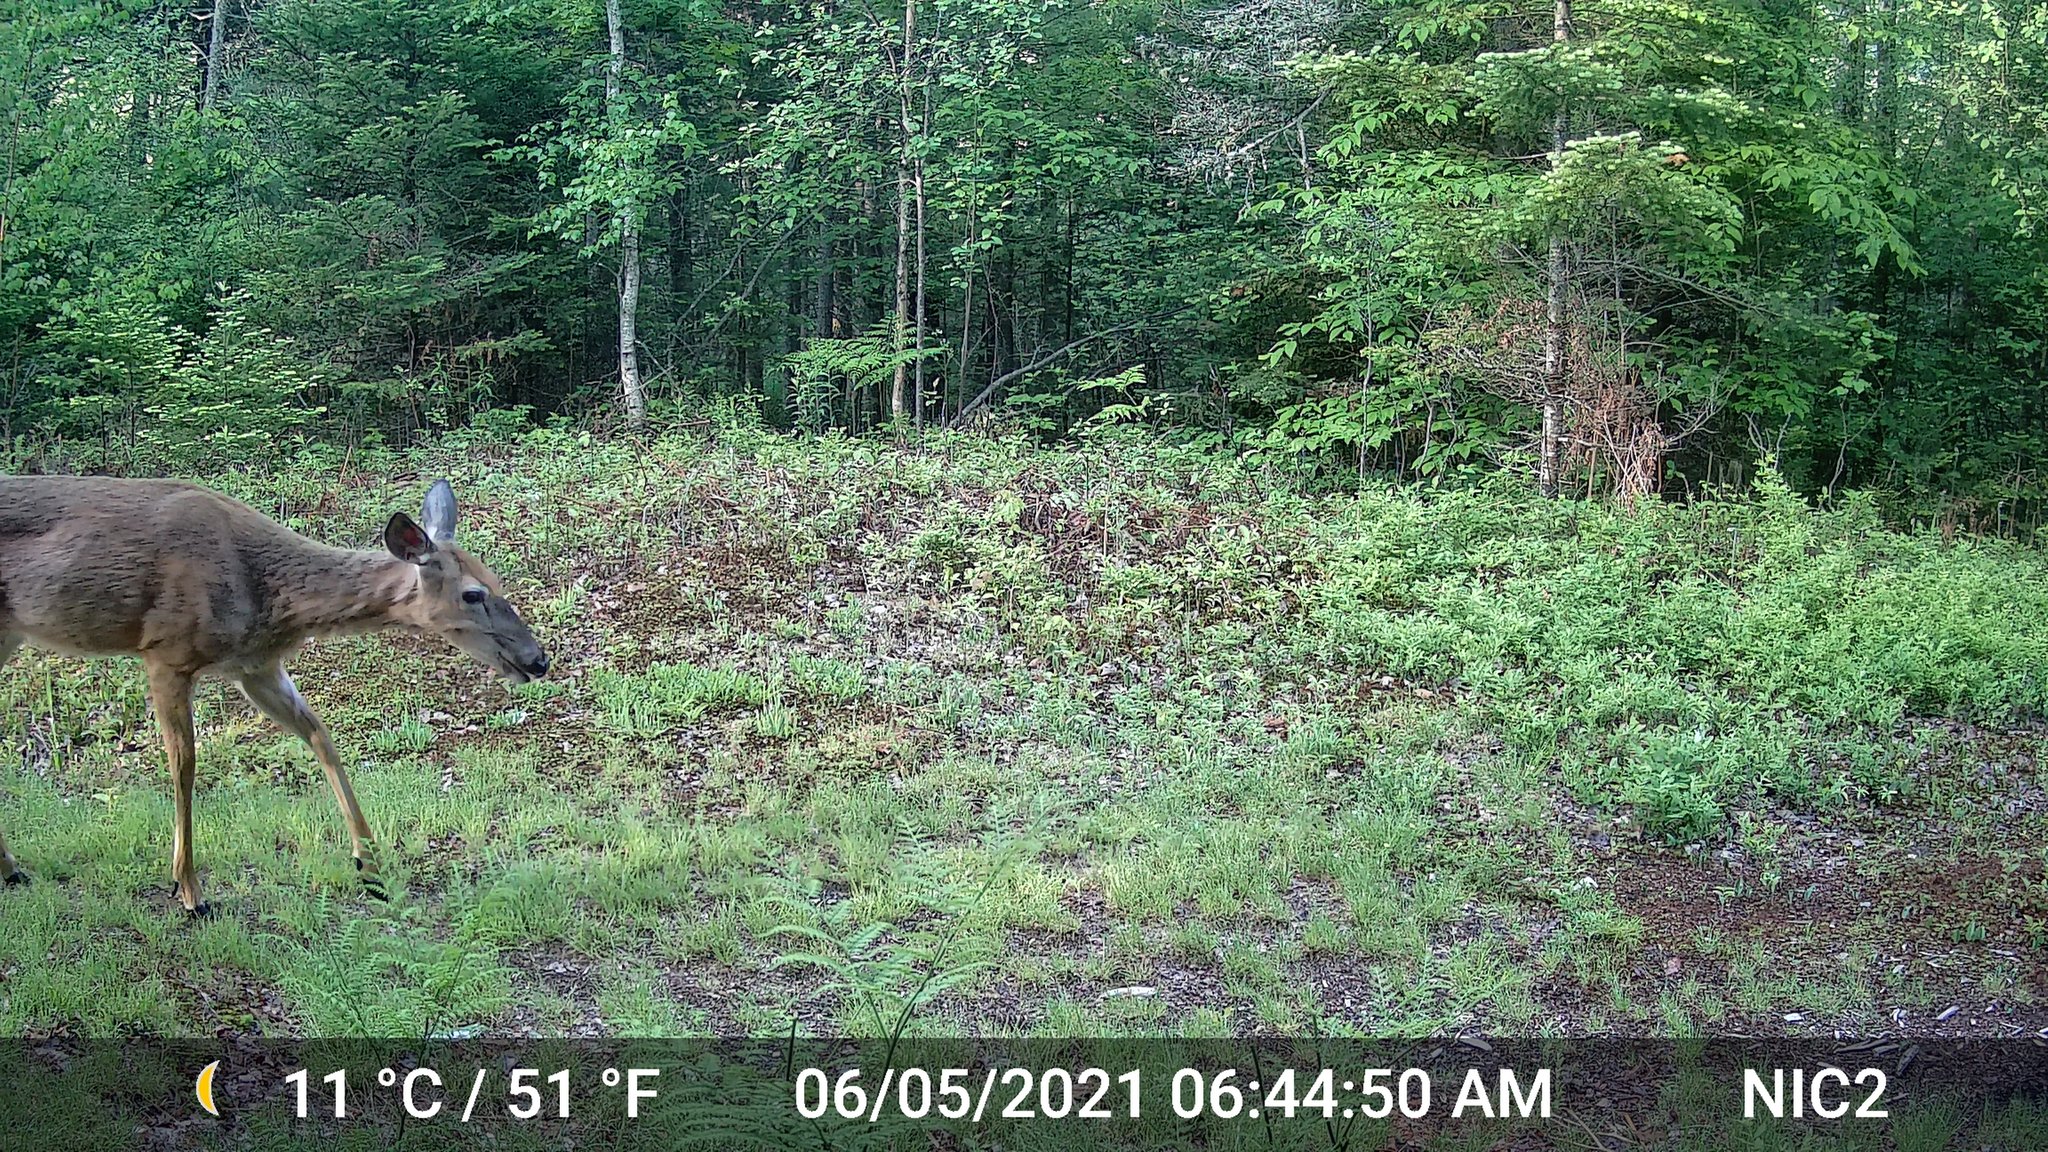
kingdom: Animalia
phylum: Chordata
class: Mammalia
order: Artiodactyla
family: Cervidae
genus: Odocoileus
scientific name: Odocoileus virginianus
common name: White-tailed deer
